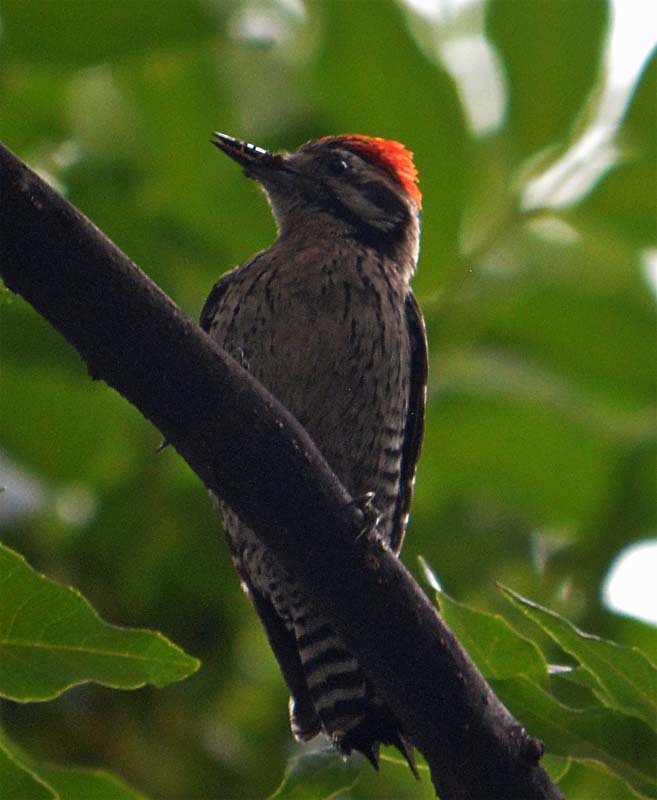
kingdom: Animalia
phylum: Chordata
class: Aves
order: Piciformes
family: Picidae
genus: Dryobates
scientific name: Dryobates scalaris
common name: Ladder-backed woodpecker
